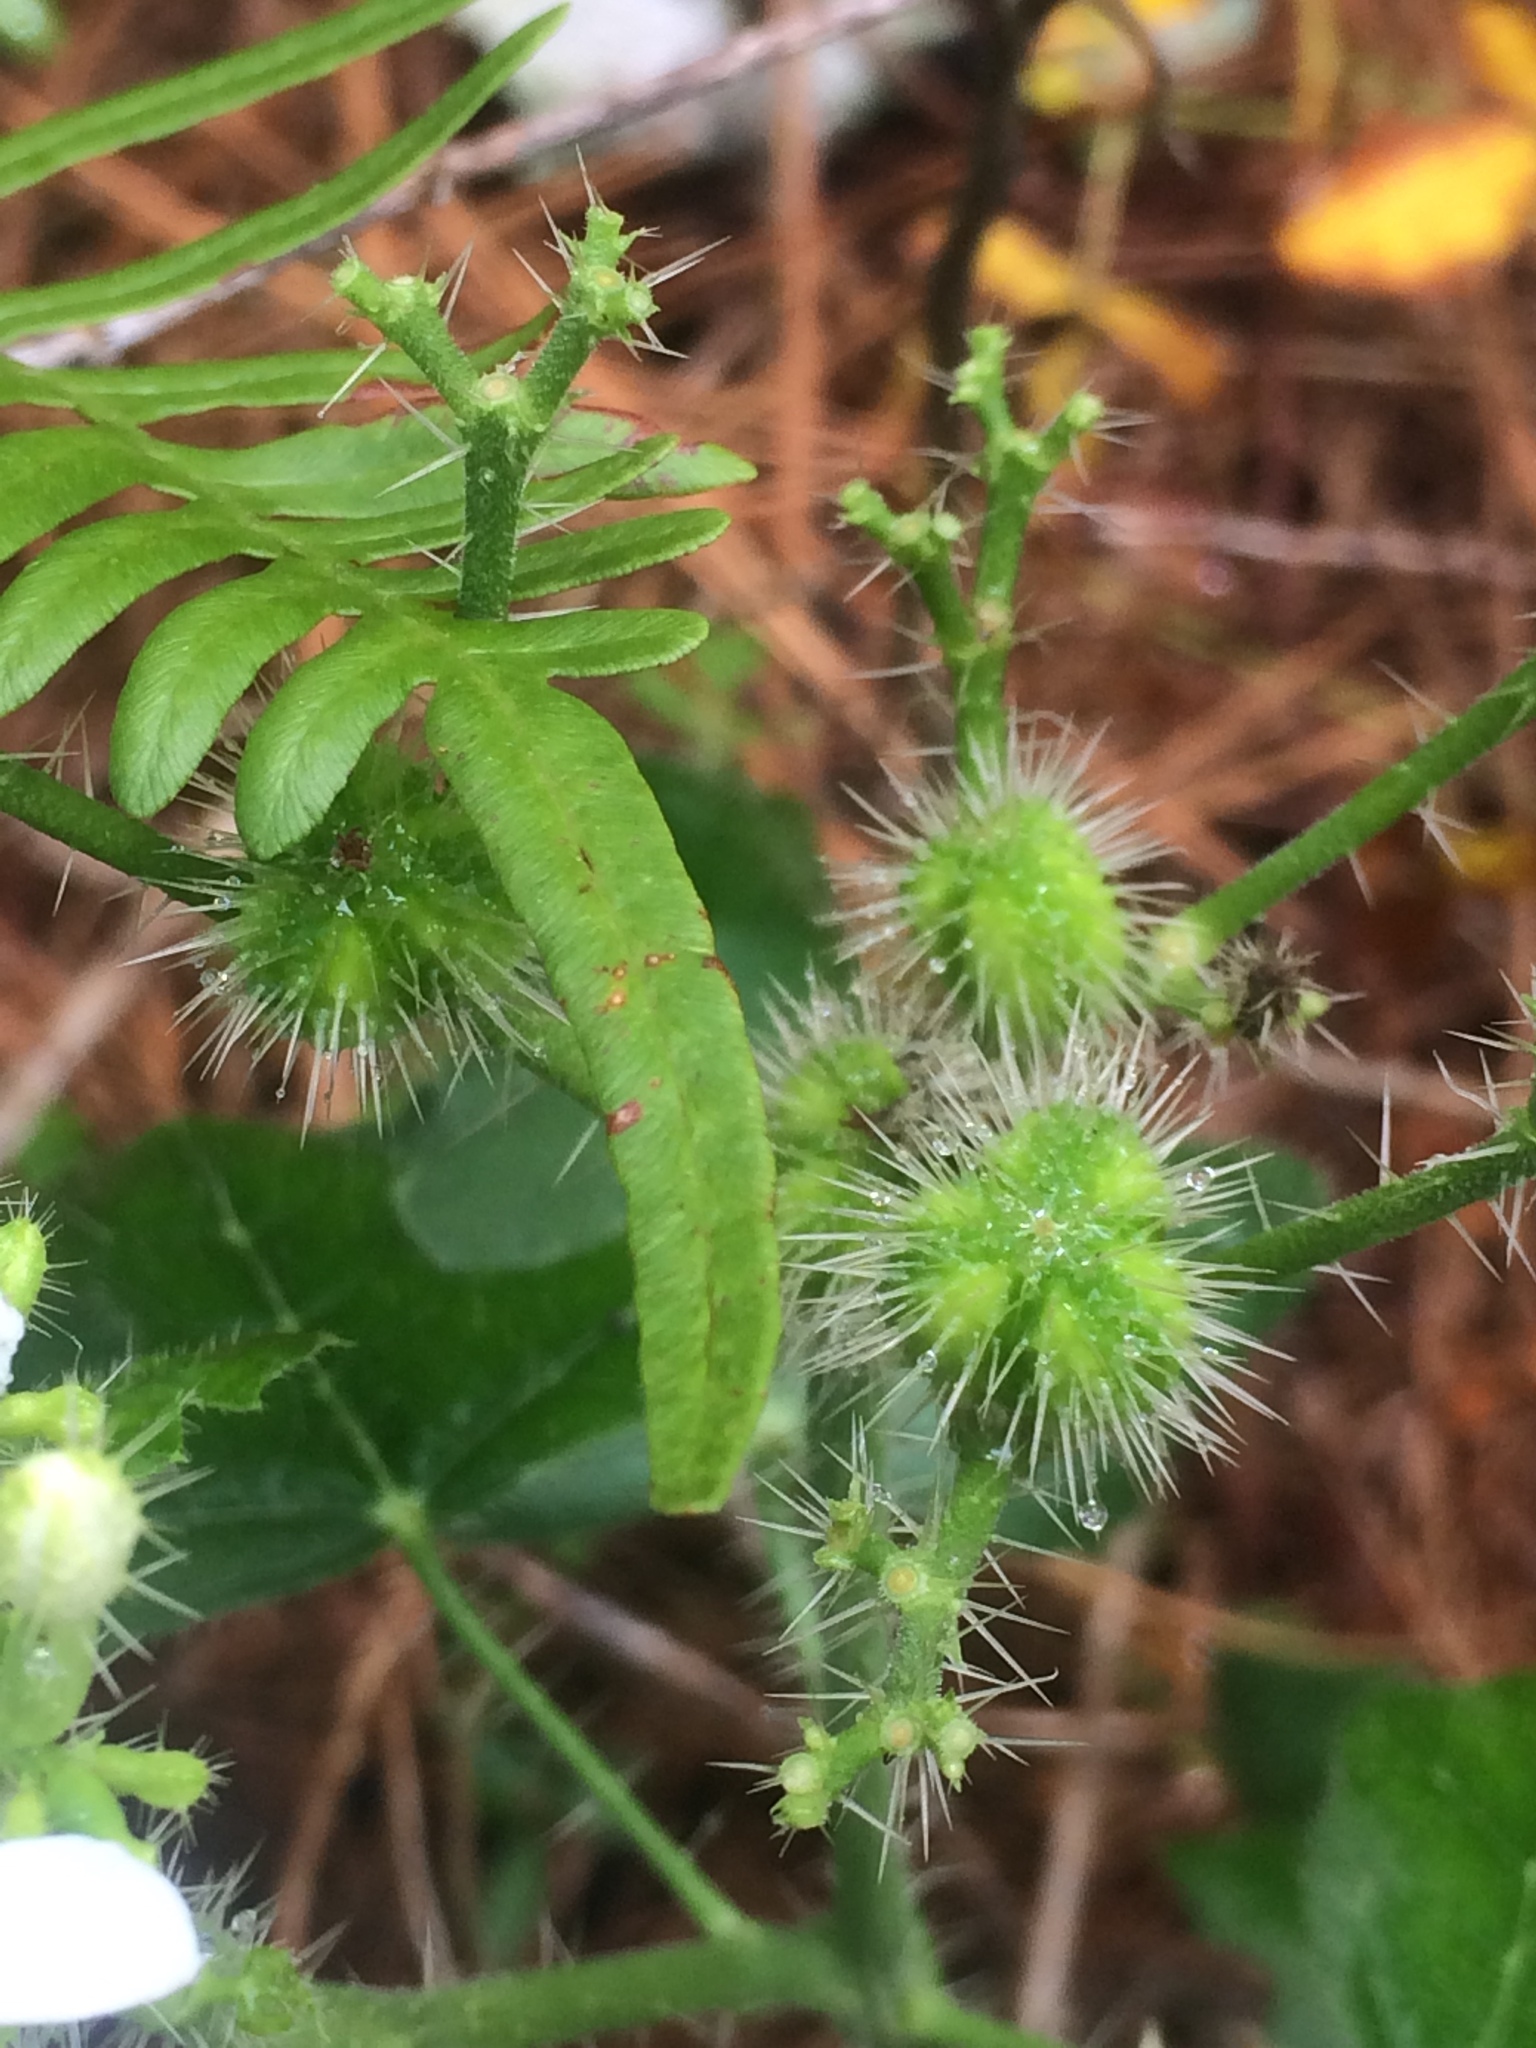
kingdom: Plantae
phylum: Tracheophyta
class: Magnoliopsida
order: Malpighiales
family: Euphorbiaceae
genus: Cnidoscolus
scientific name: Cnidoscolus stimulosus
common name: Bull-nettle
